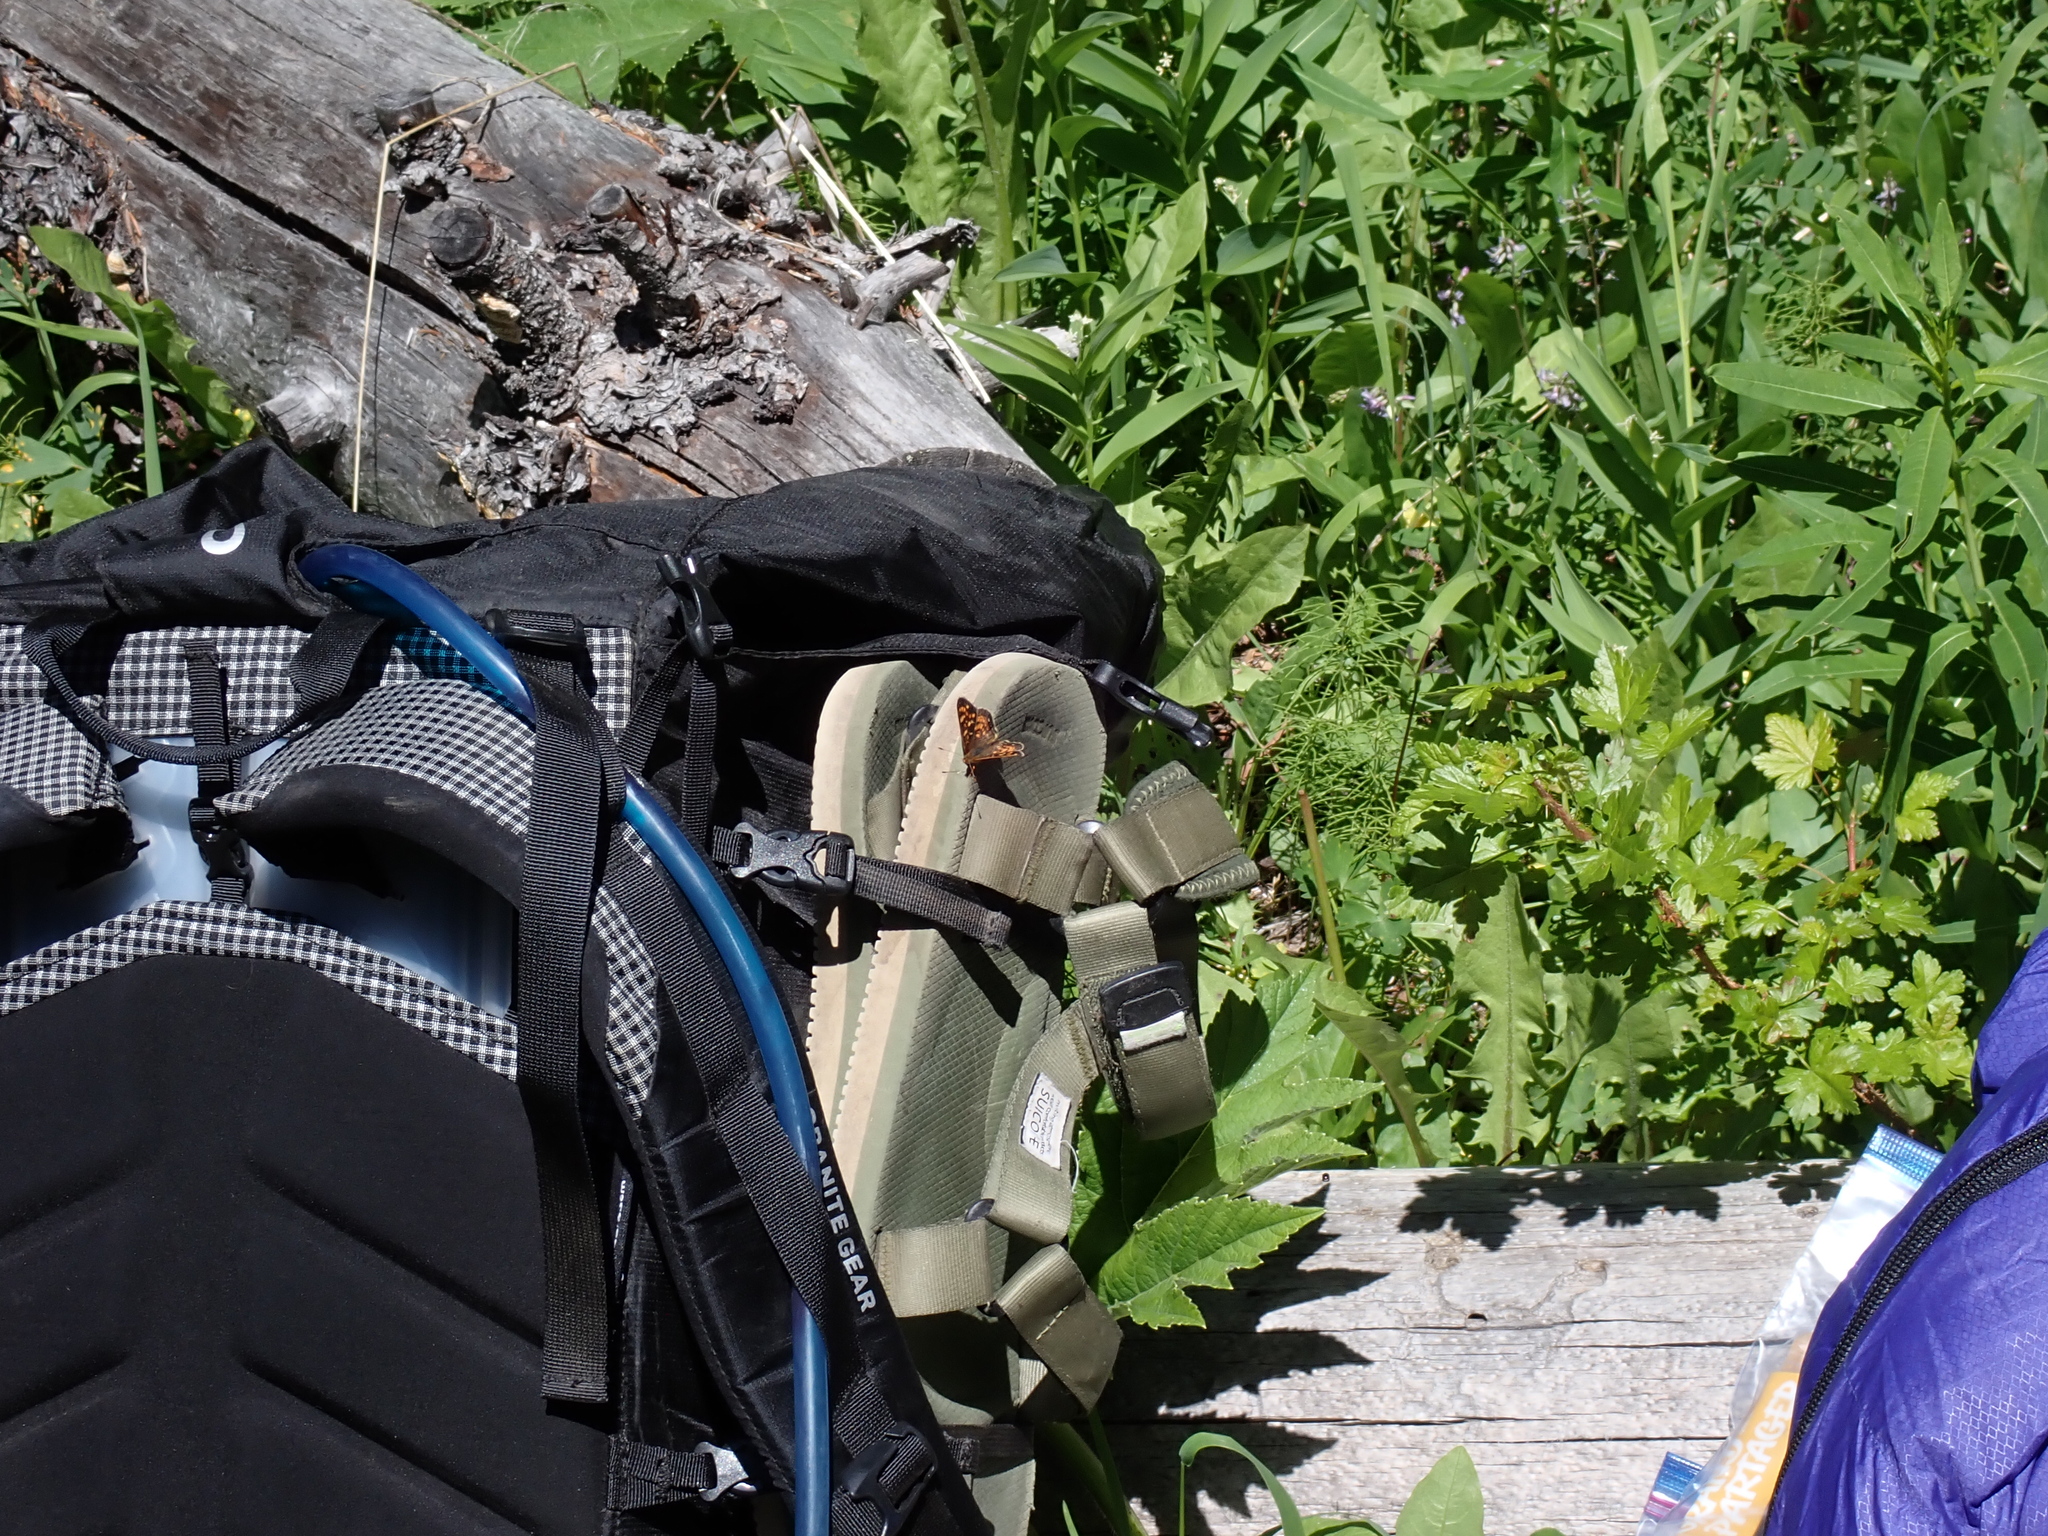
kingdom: Animalia
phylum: Arthropoda
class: Insecta
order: Lepidoptera
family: Nymphalidae
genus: Phyciodes
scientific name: Phyciodes tharos
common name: Pearl crescent
